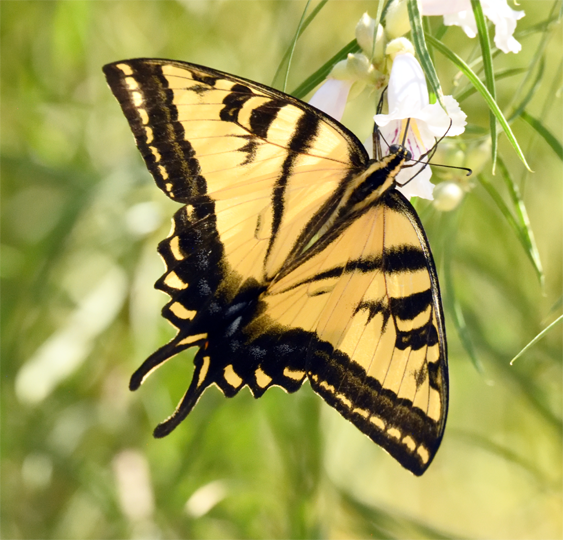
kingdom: Animalia
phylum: Arthropoda
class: Insecta
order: Lepidoptera
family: Papilionidae
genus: Papilio
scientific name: Papilio rutulus
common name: Western tiger swallowtail
